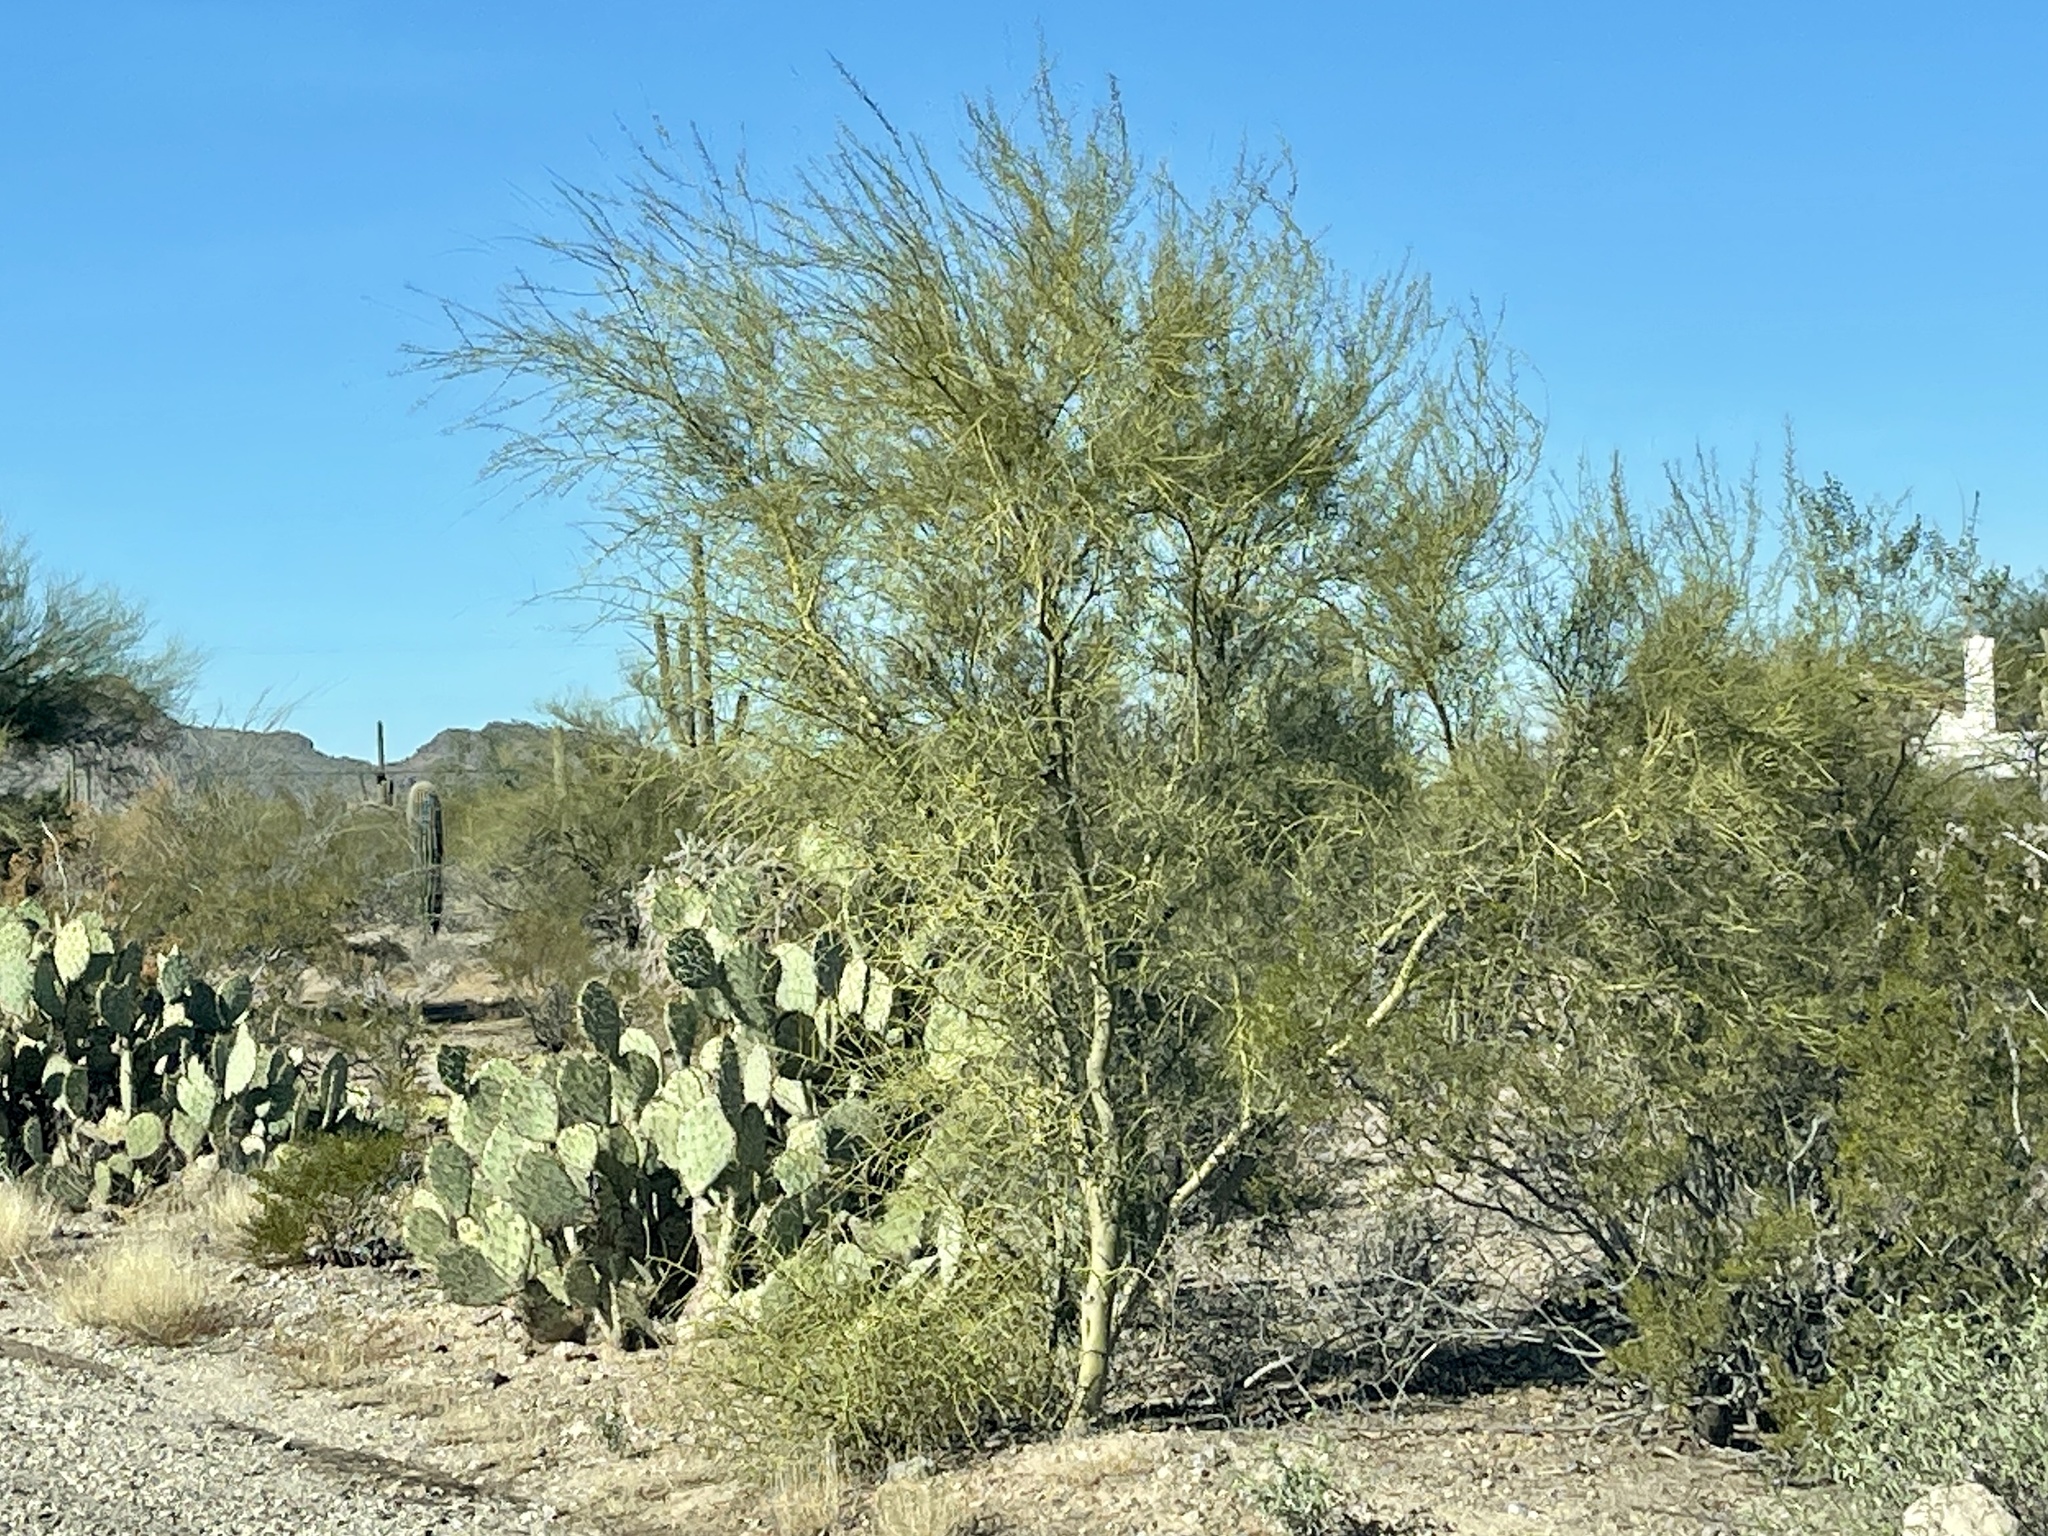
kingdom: Plantae
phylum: Tracheophyta
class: Magnoliopsida
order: Fabales
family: Fabaceae
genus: Parkinsonia
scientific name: Parkinsonia microphylla
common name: Yellow paloverde
